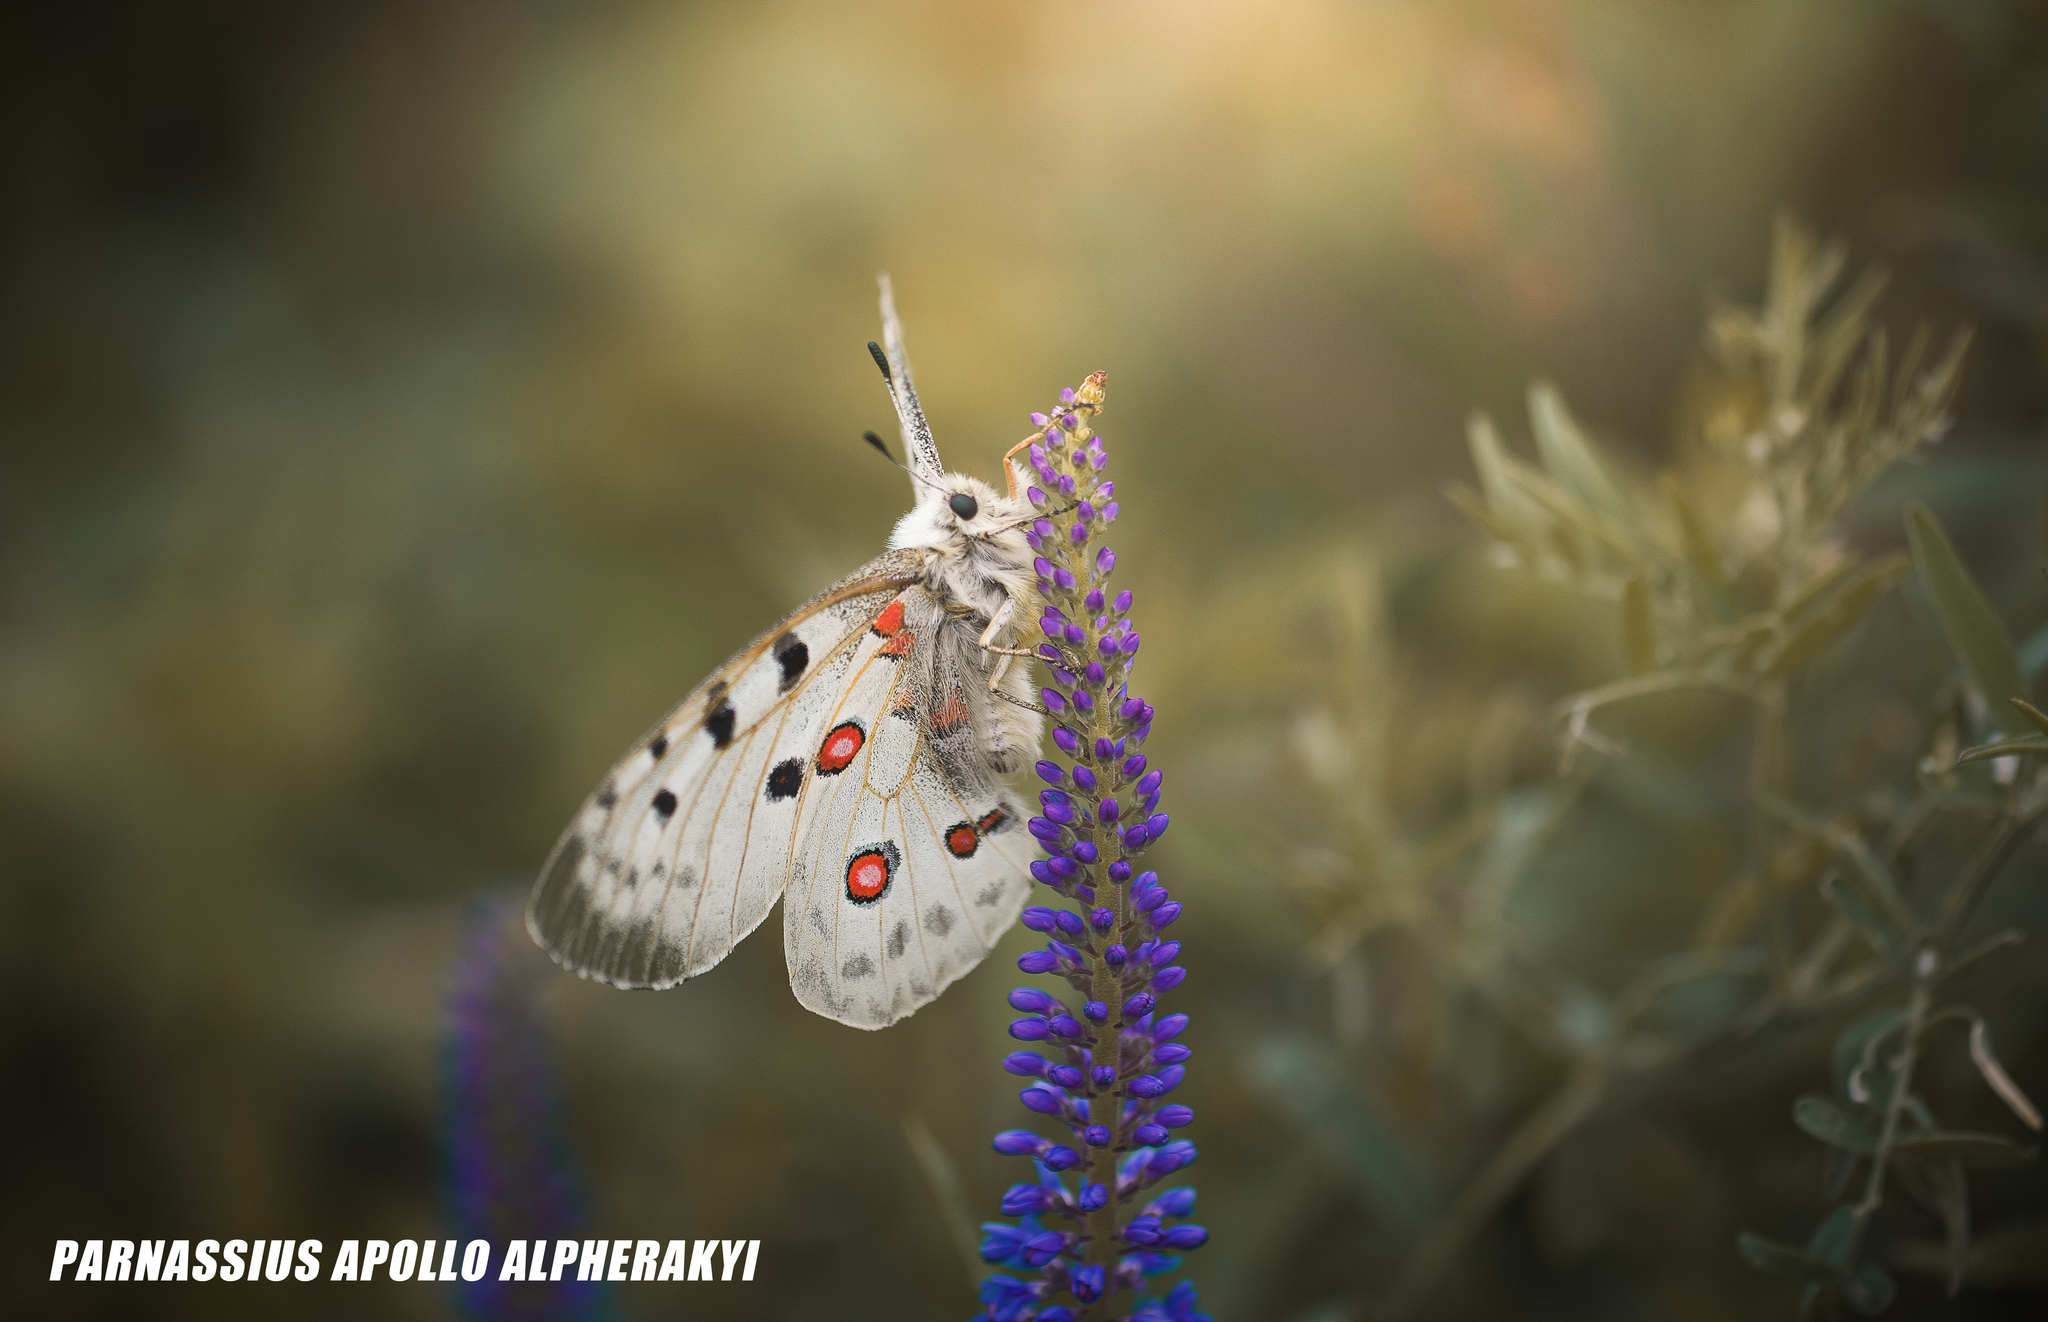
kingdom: Animalia
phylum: Arthropoda
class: Insecta
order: Lepidoptera
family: Papilionidae
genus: Parnassius
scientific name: Parnassius apollo
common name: Apollo
